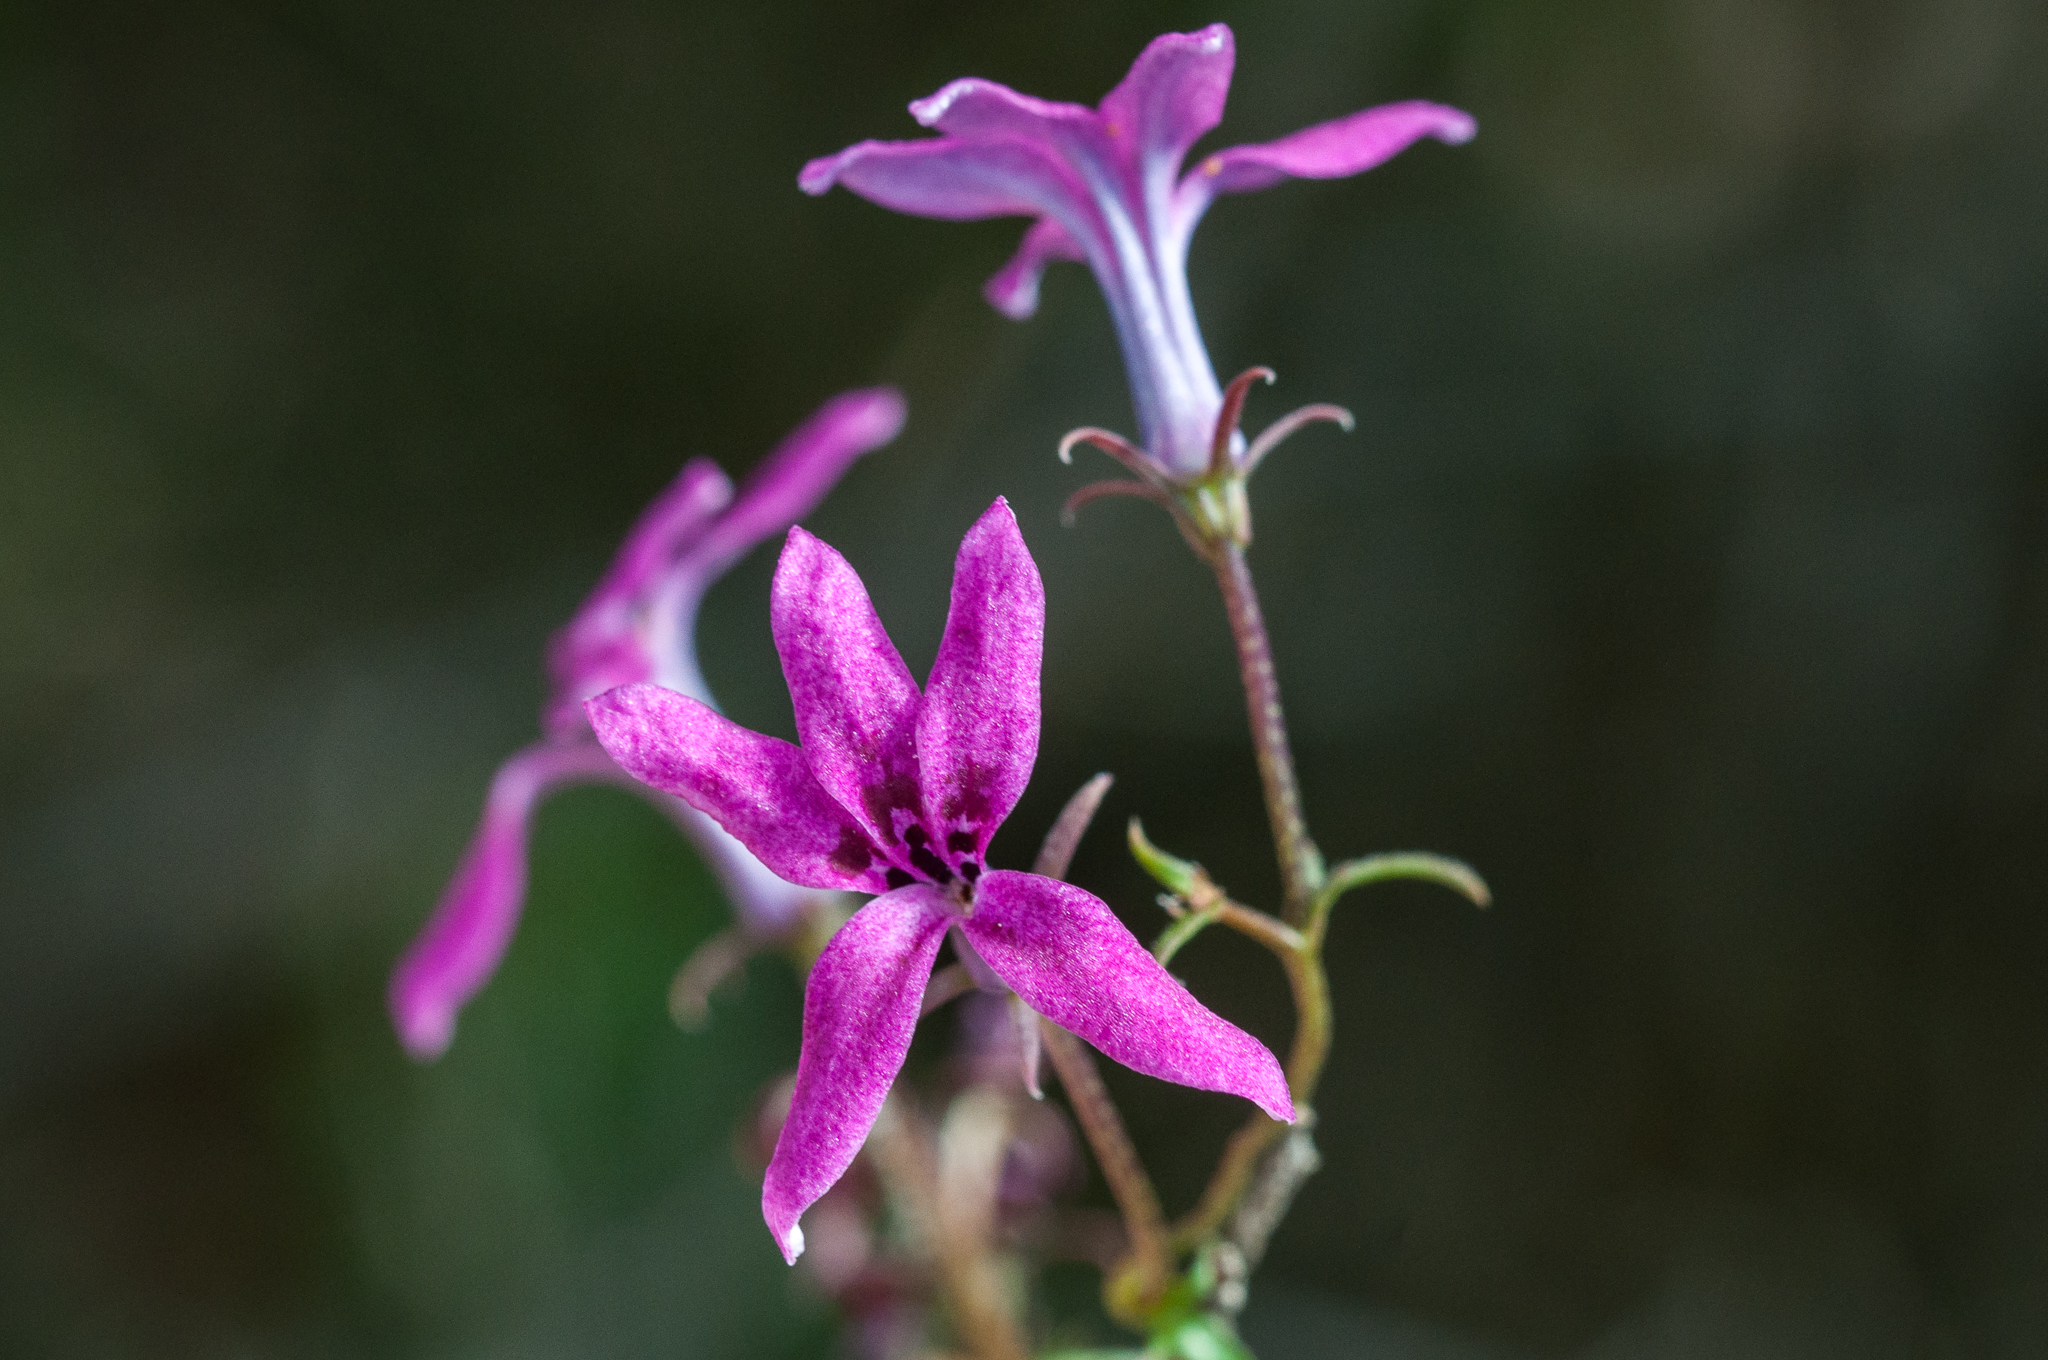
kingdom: Plantae
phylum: Tracheophyta
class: Magnoliopsida
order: Asterales
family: Campanulaceae
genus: Cyphia
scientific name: Cyphia volubilis
